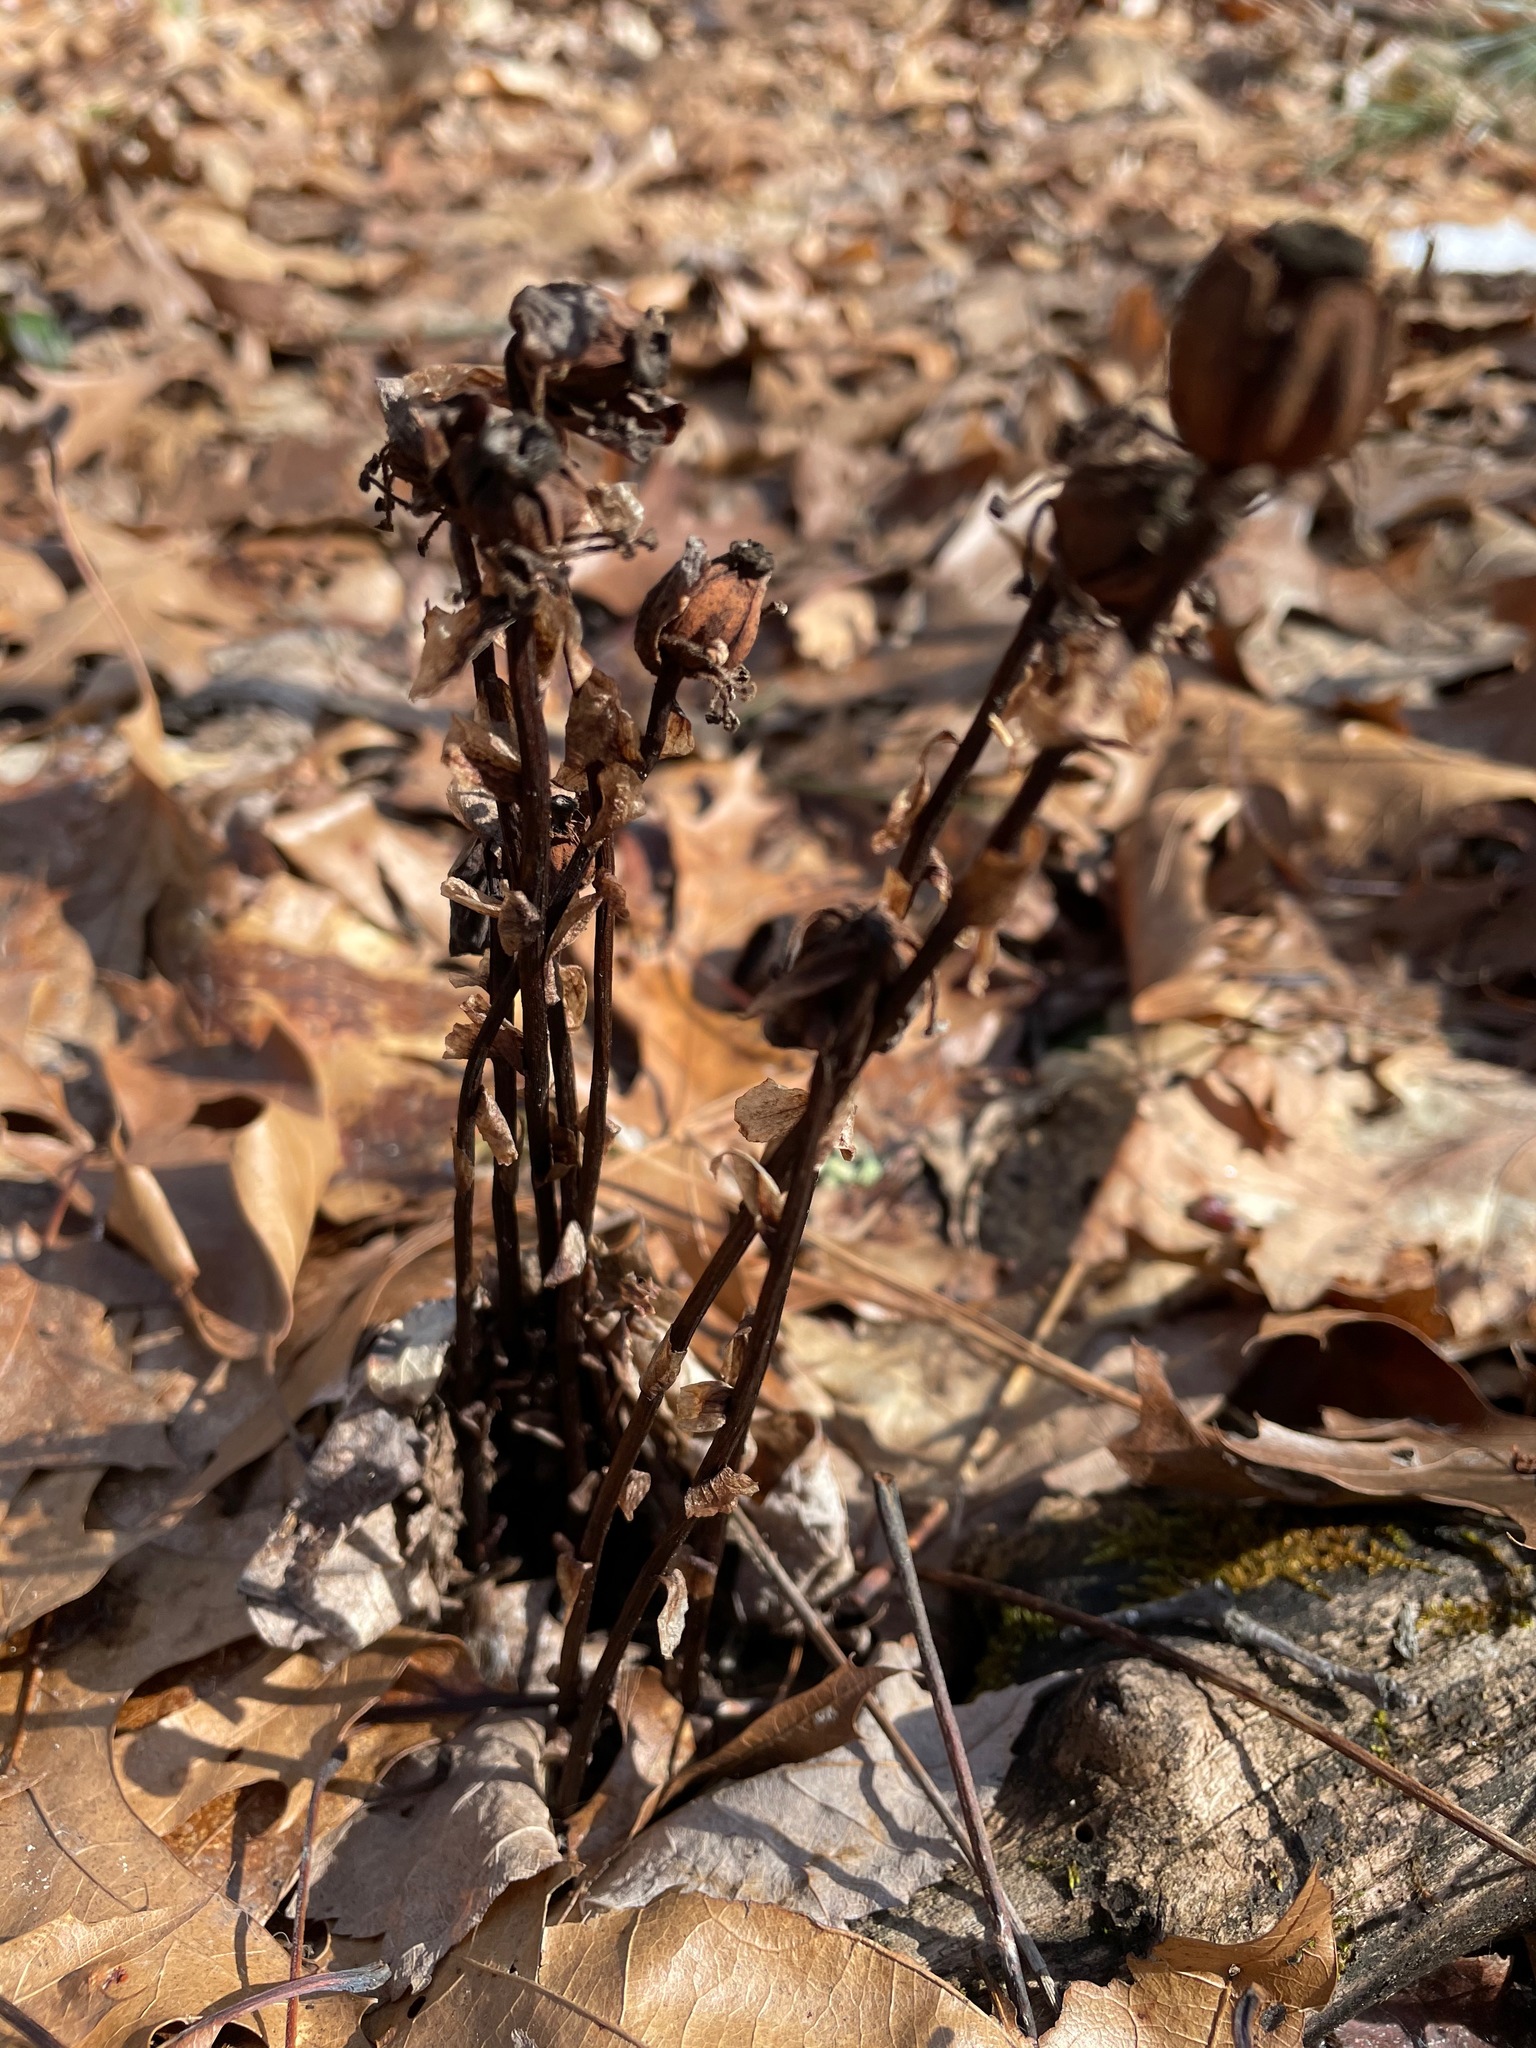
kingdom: Plantae
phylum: Tracheophyta
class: Magnoliopsida
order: Ericales
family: Ericaceae
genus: Monotropa
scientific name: Monotropa uniflora
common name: Convulsion root
